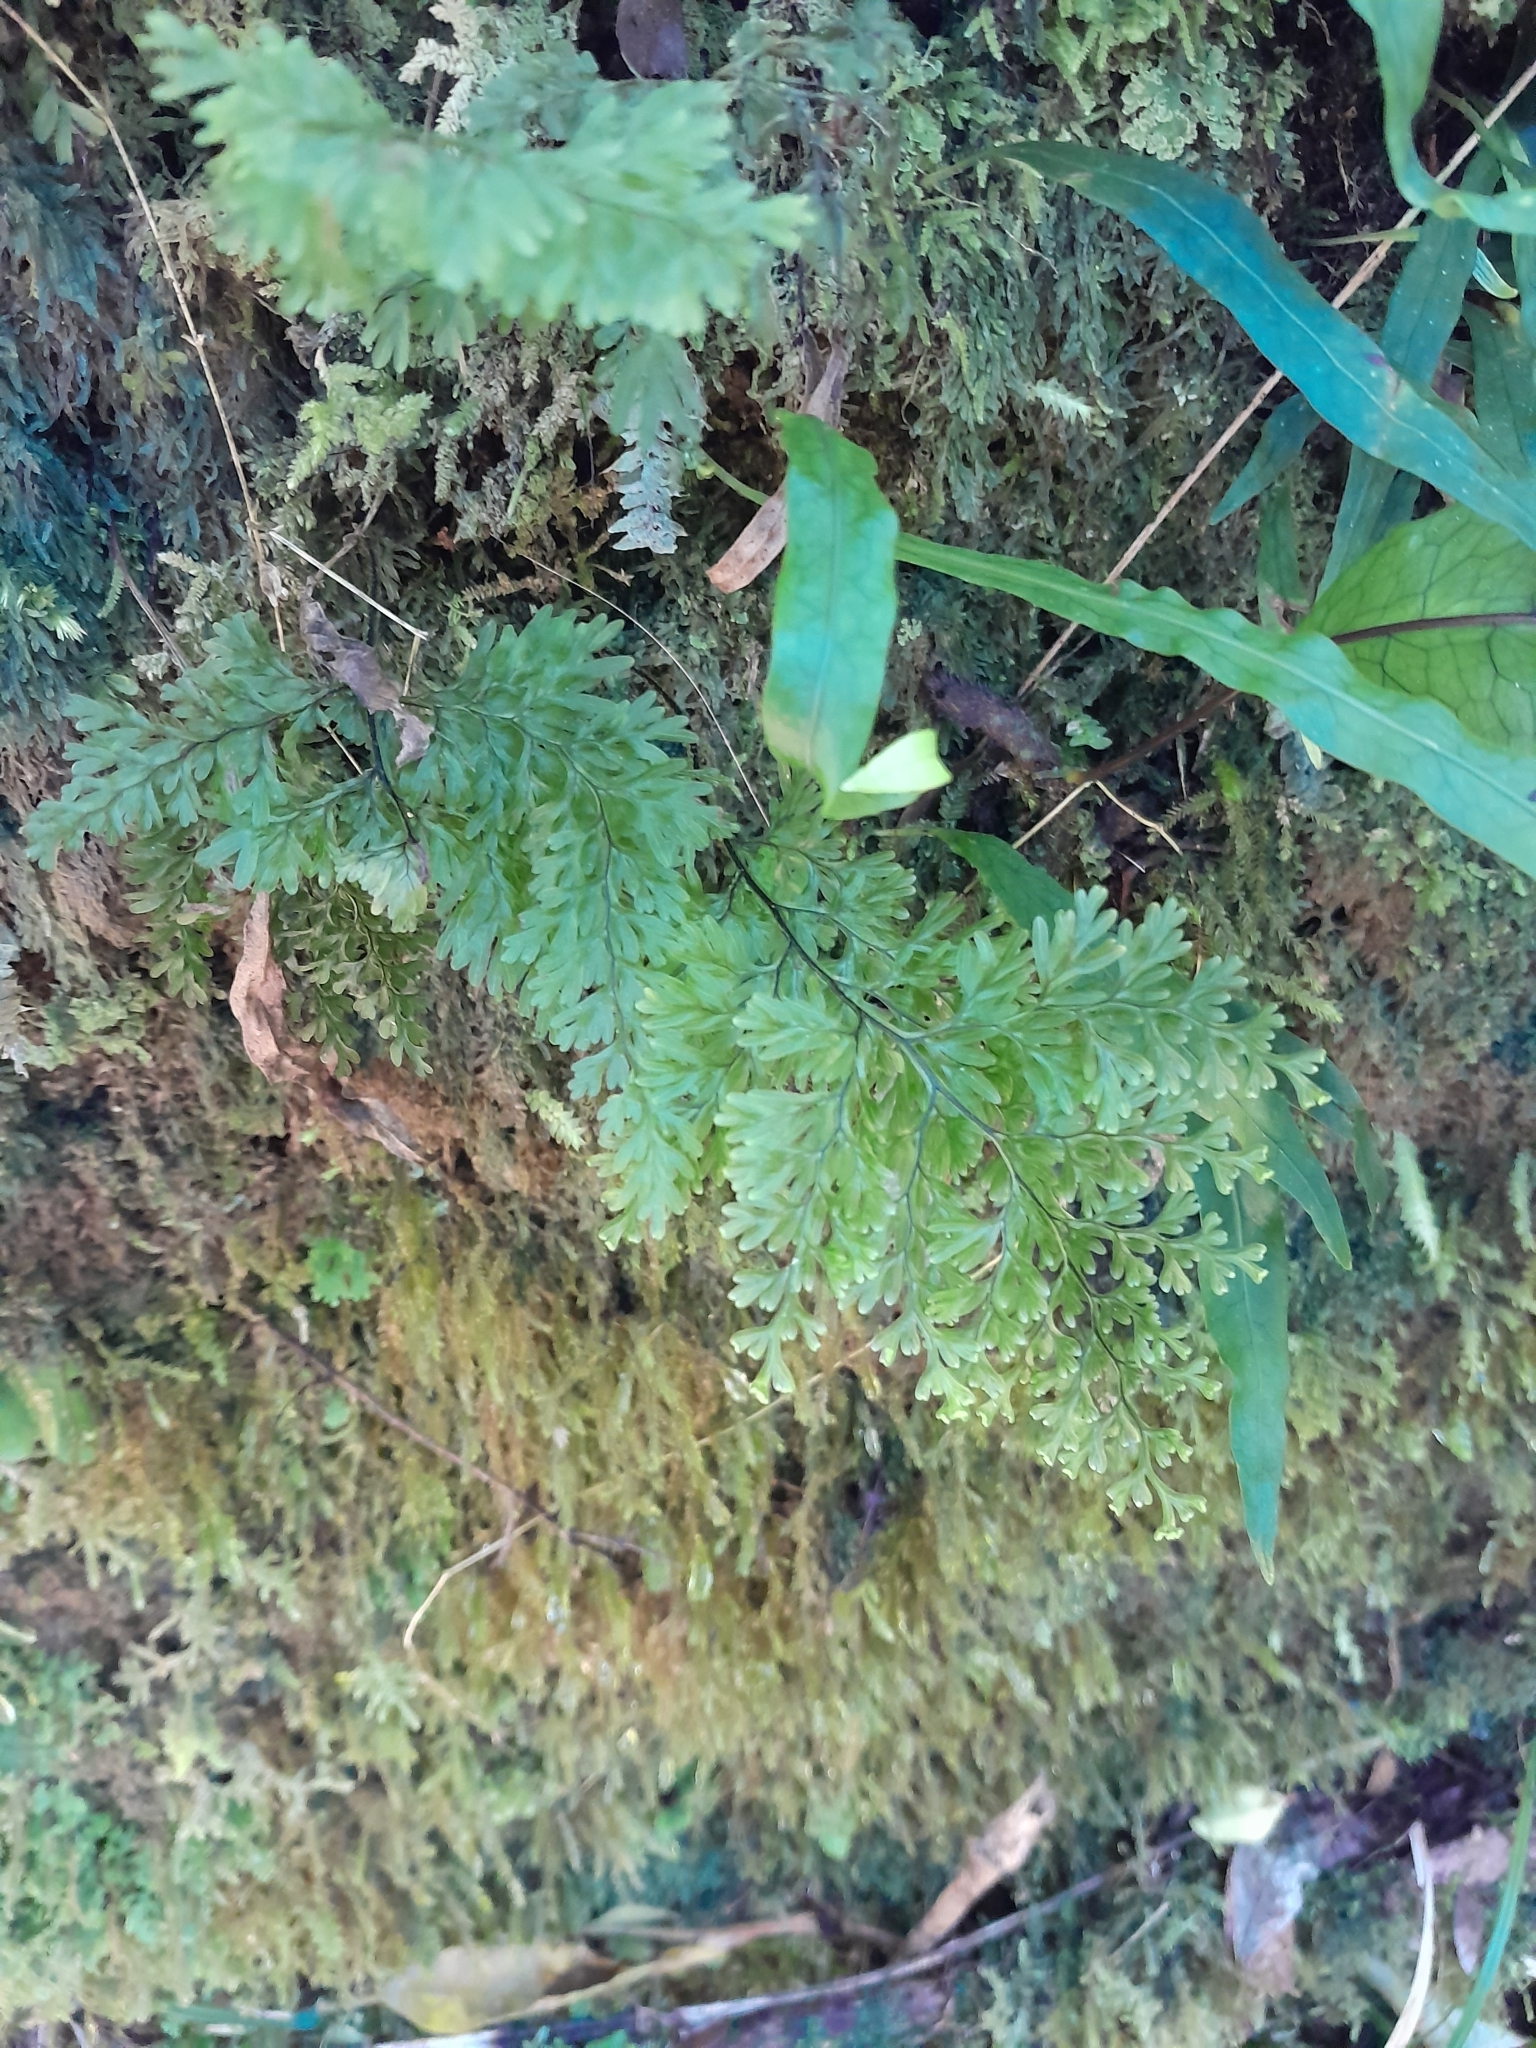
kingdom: Plantae
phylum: Tracheophyta
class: Polypodiopsida
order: Hymenophyllales
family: Hymenophyllaceae
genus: Hymenophyllum
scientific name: Hymenophyllum demissum
